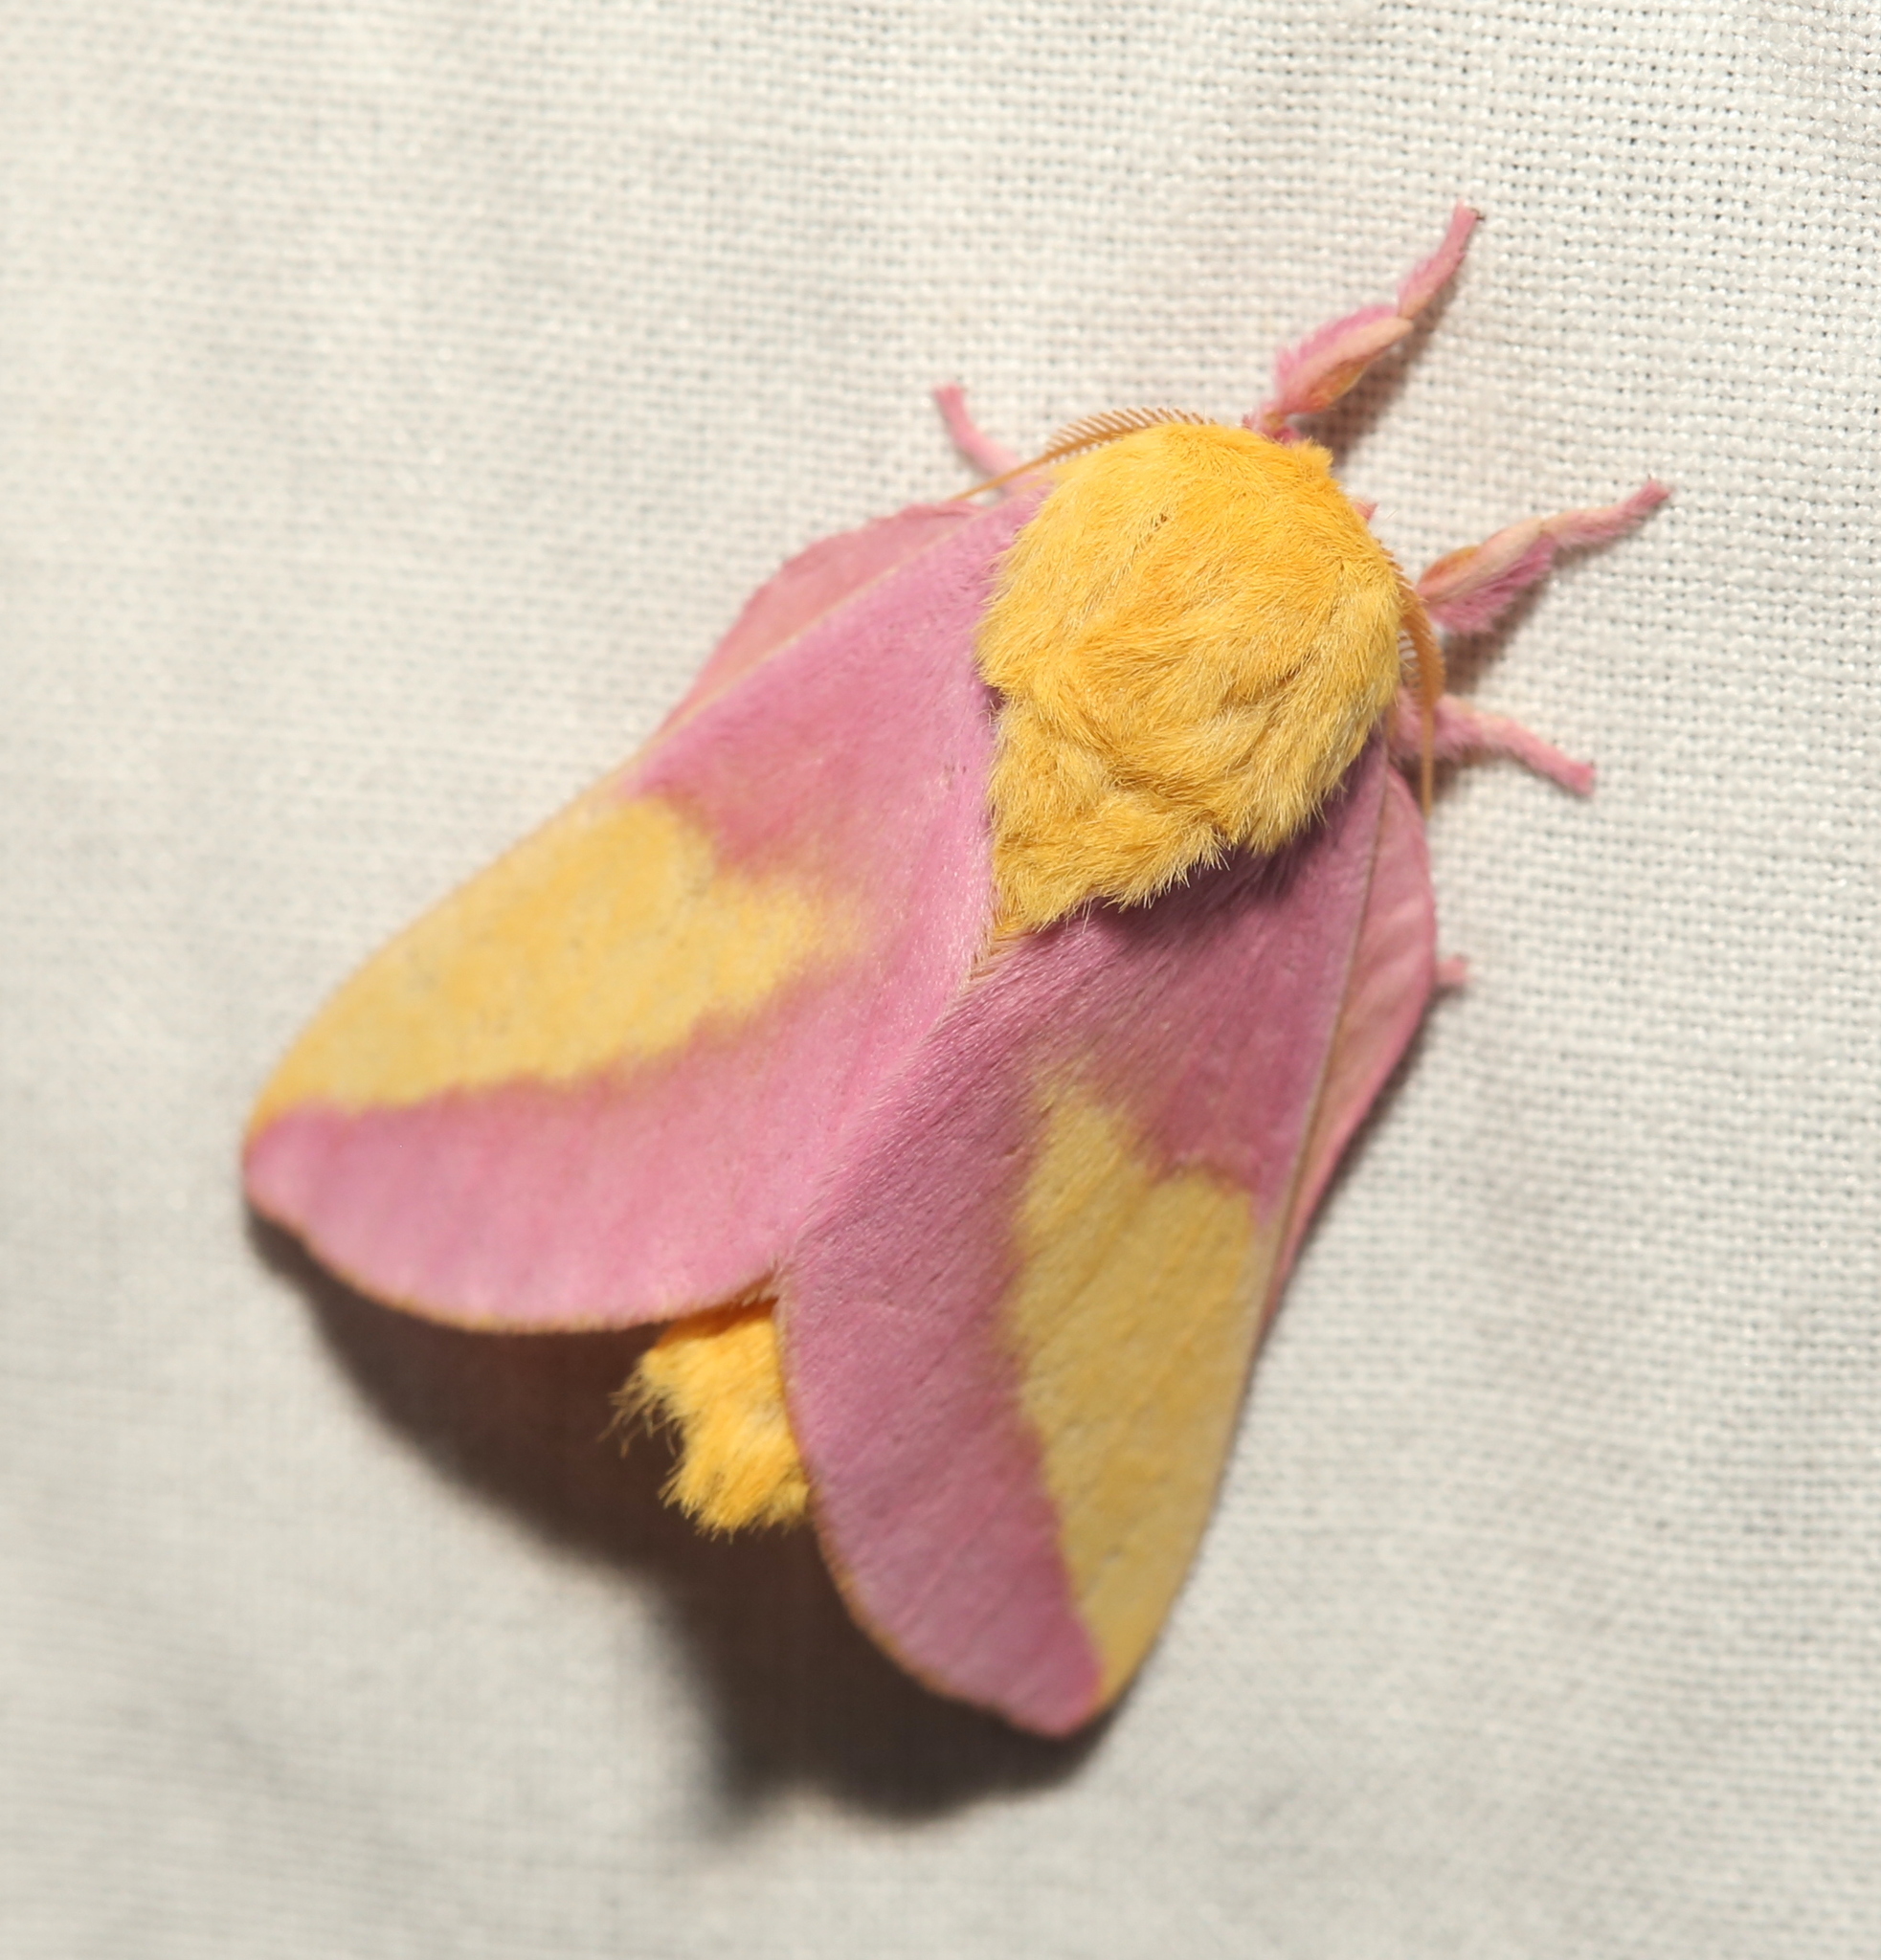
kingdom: Animalia
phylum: Arthropoda
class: Insecta
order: Lepidoptera
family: Saturniidae
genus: Dryocampa
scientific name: Dryocampa rubicunda
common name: Rosy maple moth
